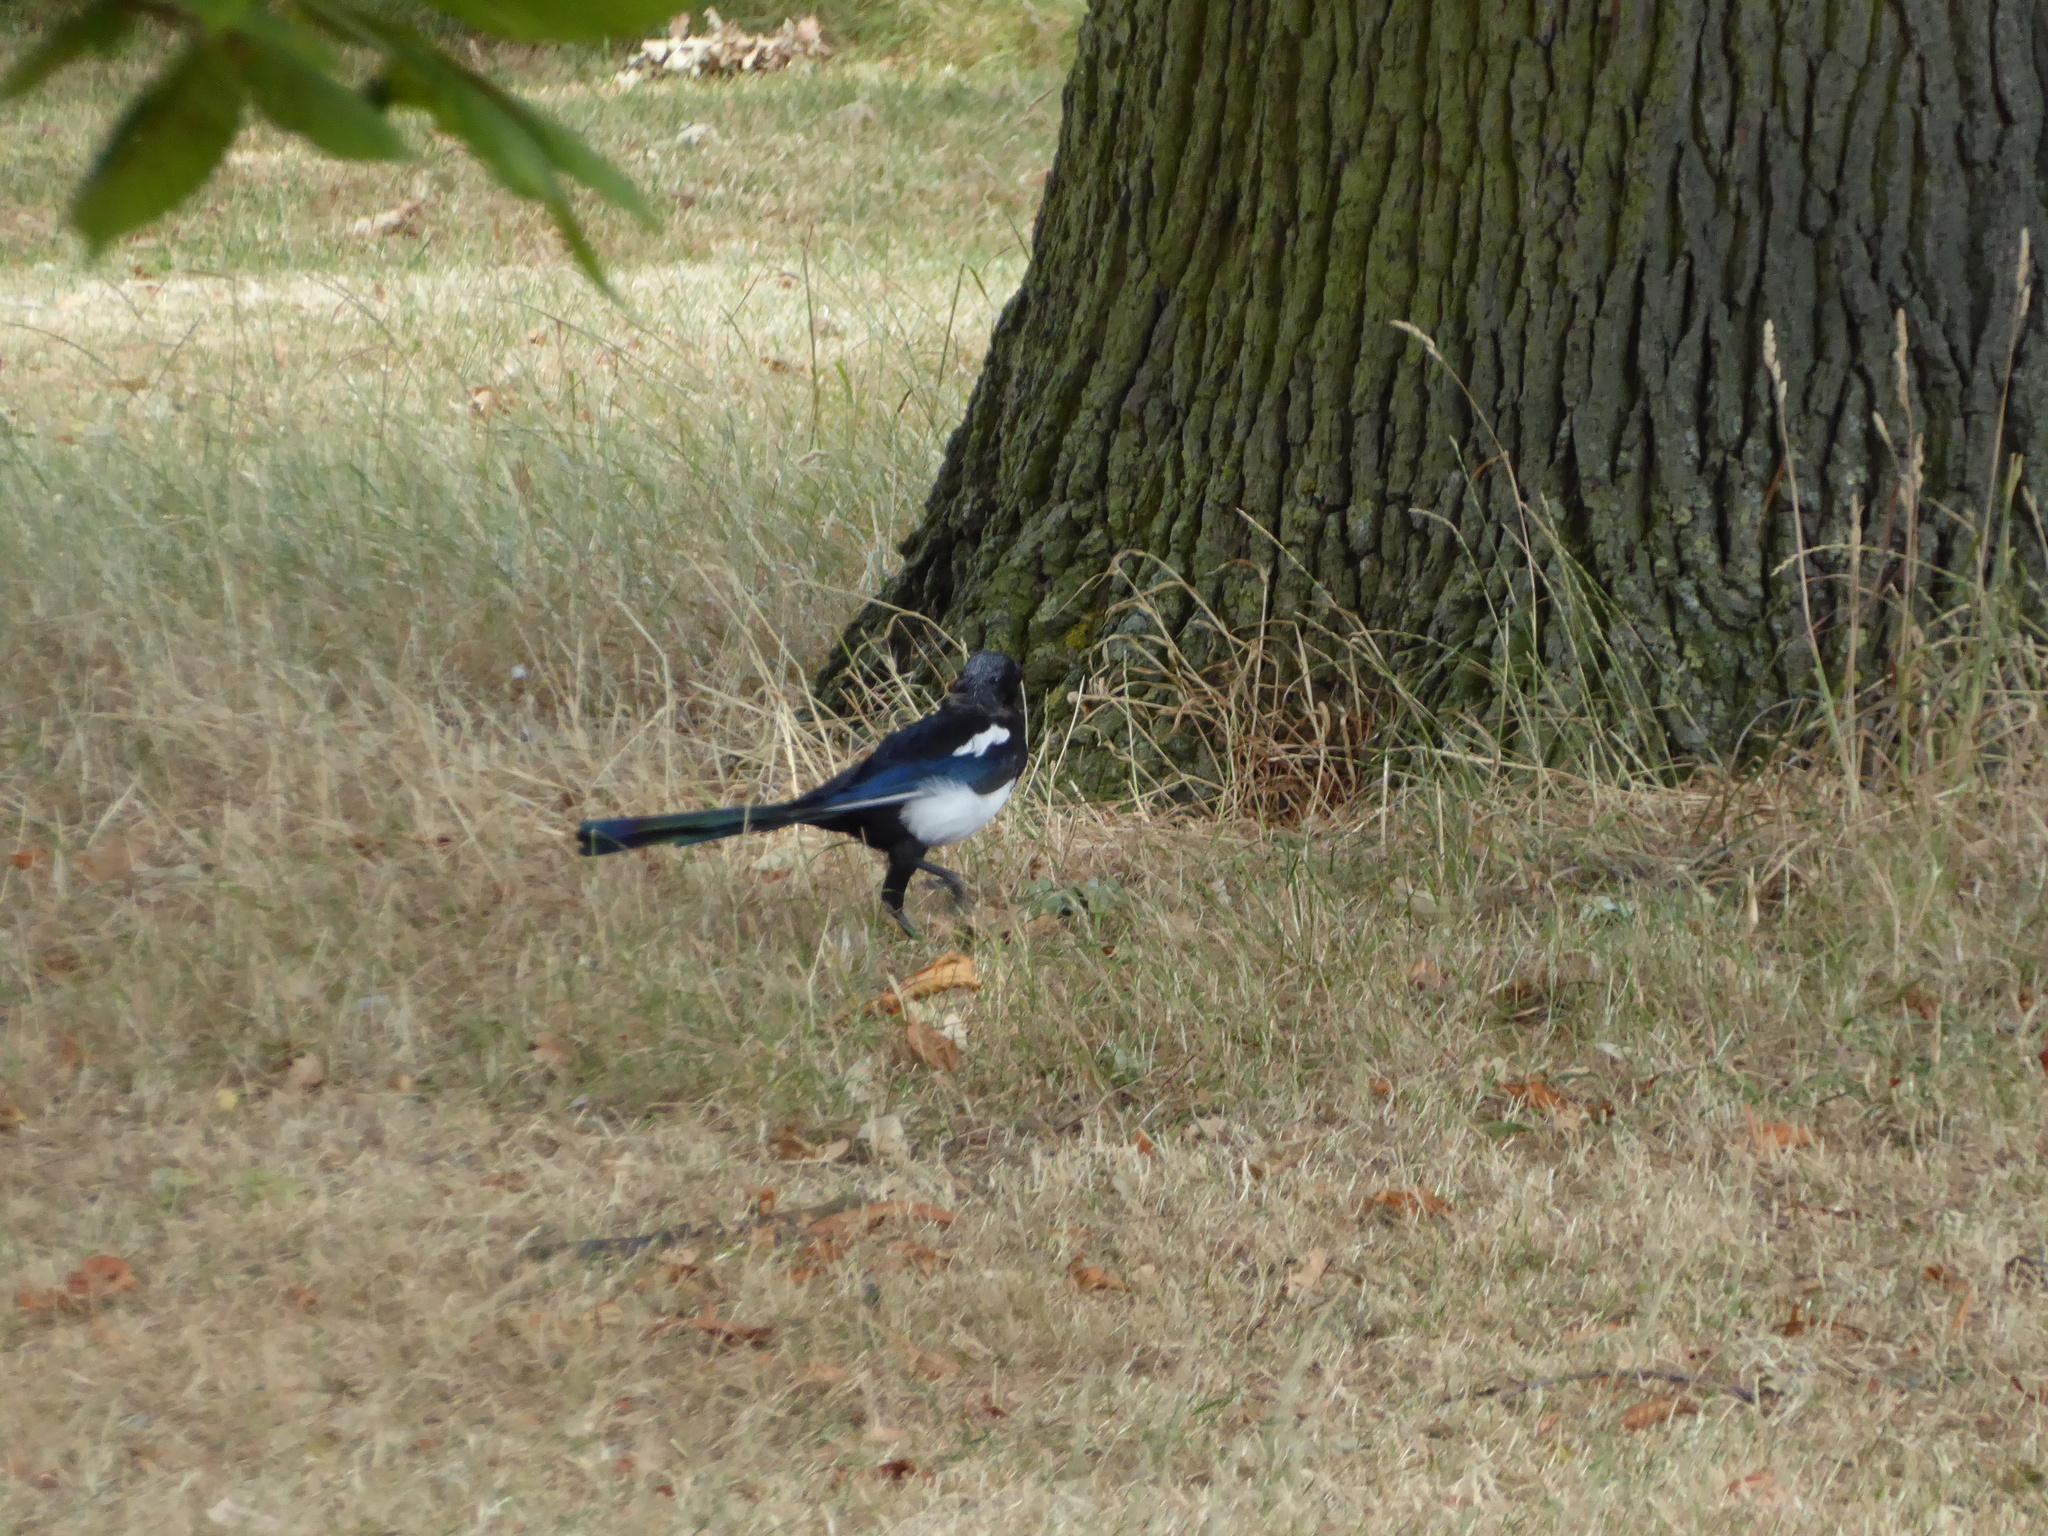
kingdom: Animalia
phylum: Chordata
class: Aves
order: Passeriformes
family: Corvidae
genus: Pica
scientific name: Pica pica
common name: Eurasian magpie
